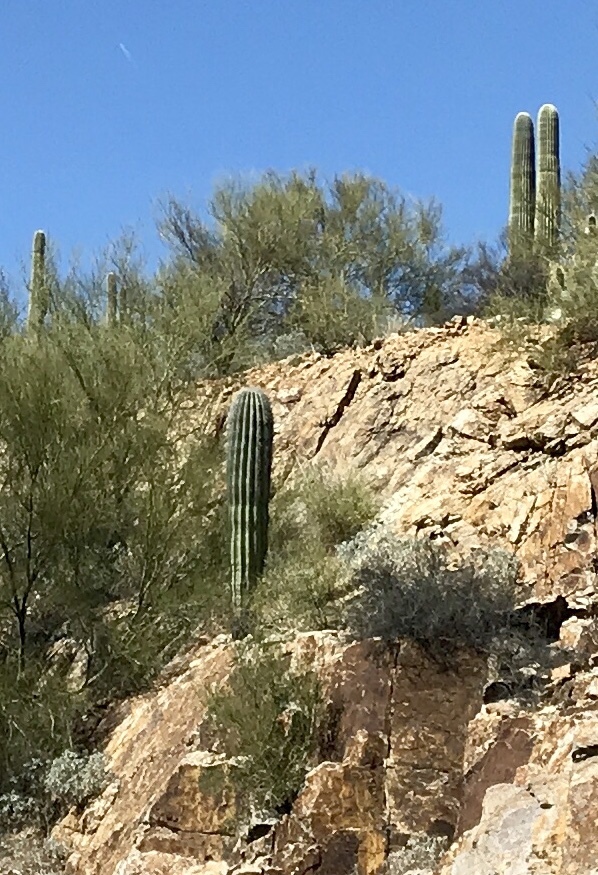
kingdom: Plantae
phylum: Tracheophyta
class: Magnoliopsida
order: Caryophyllales
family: Cactaceae
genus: Carnegiea
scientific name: Carnegiea gigantea
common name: Saguaro
